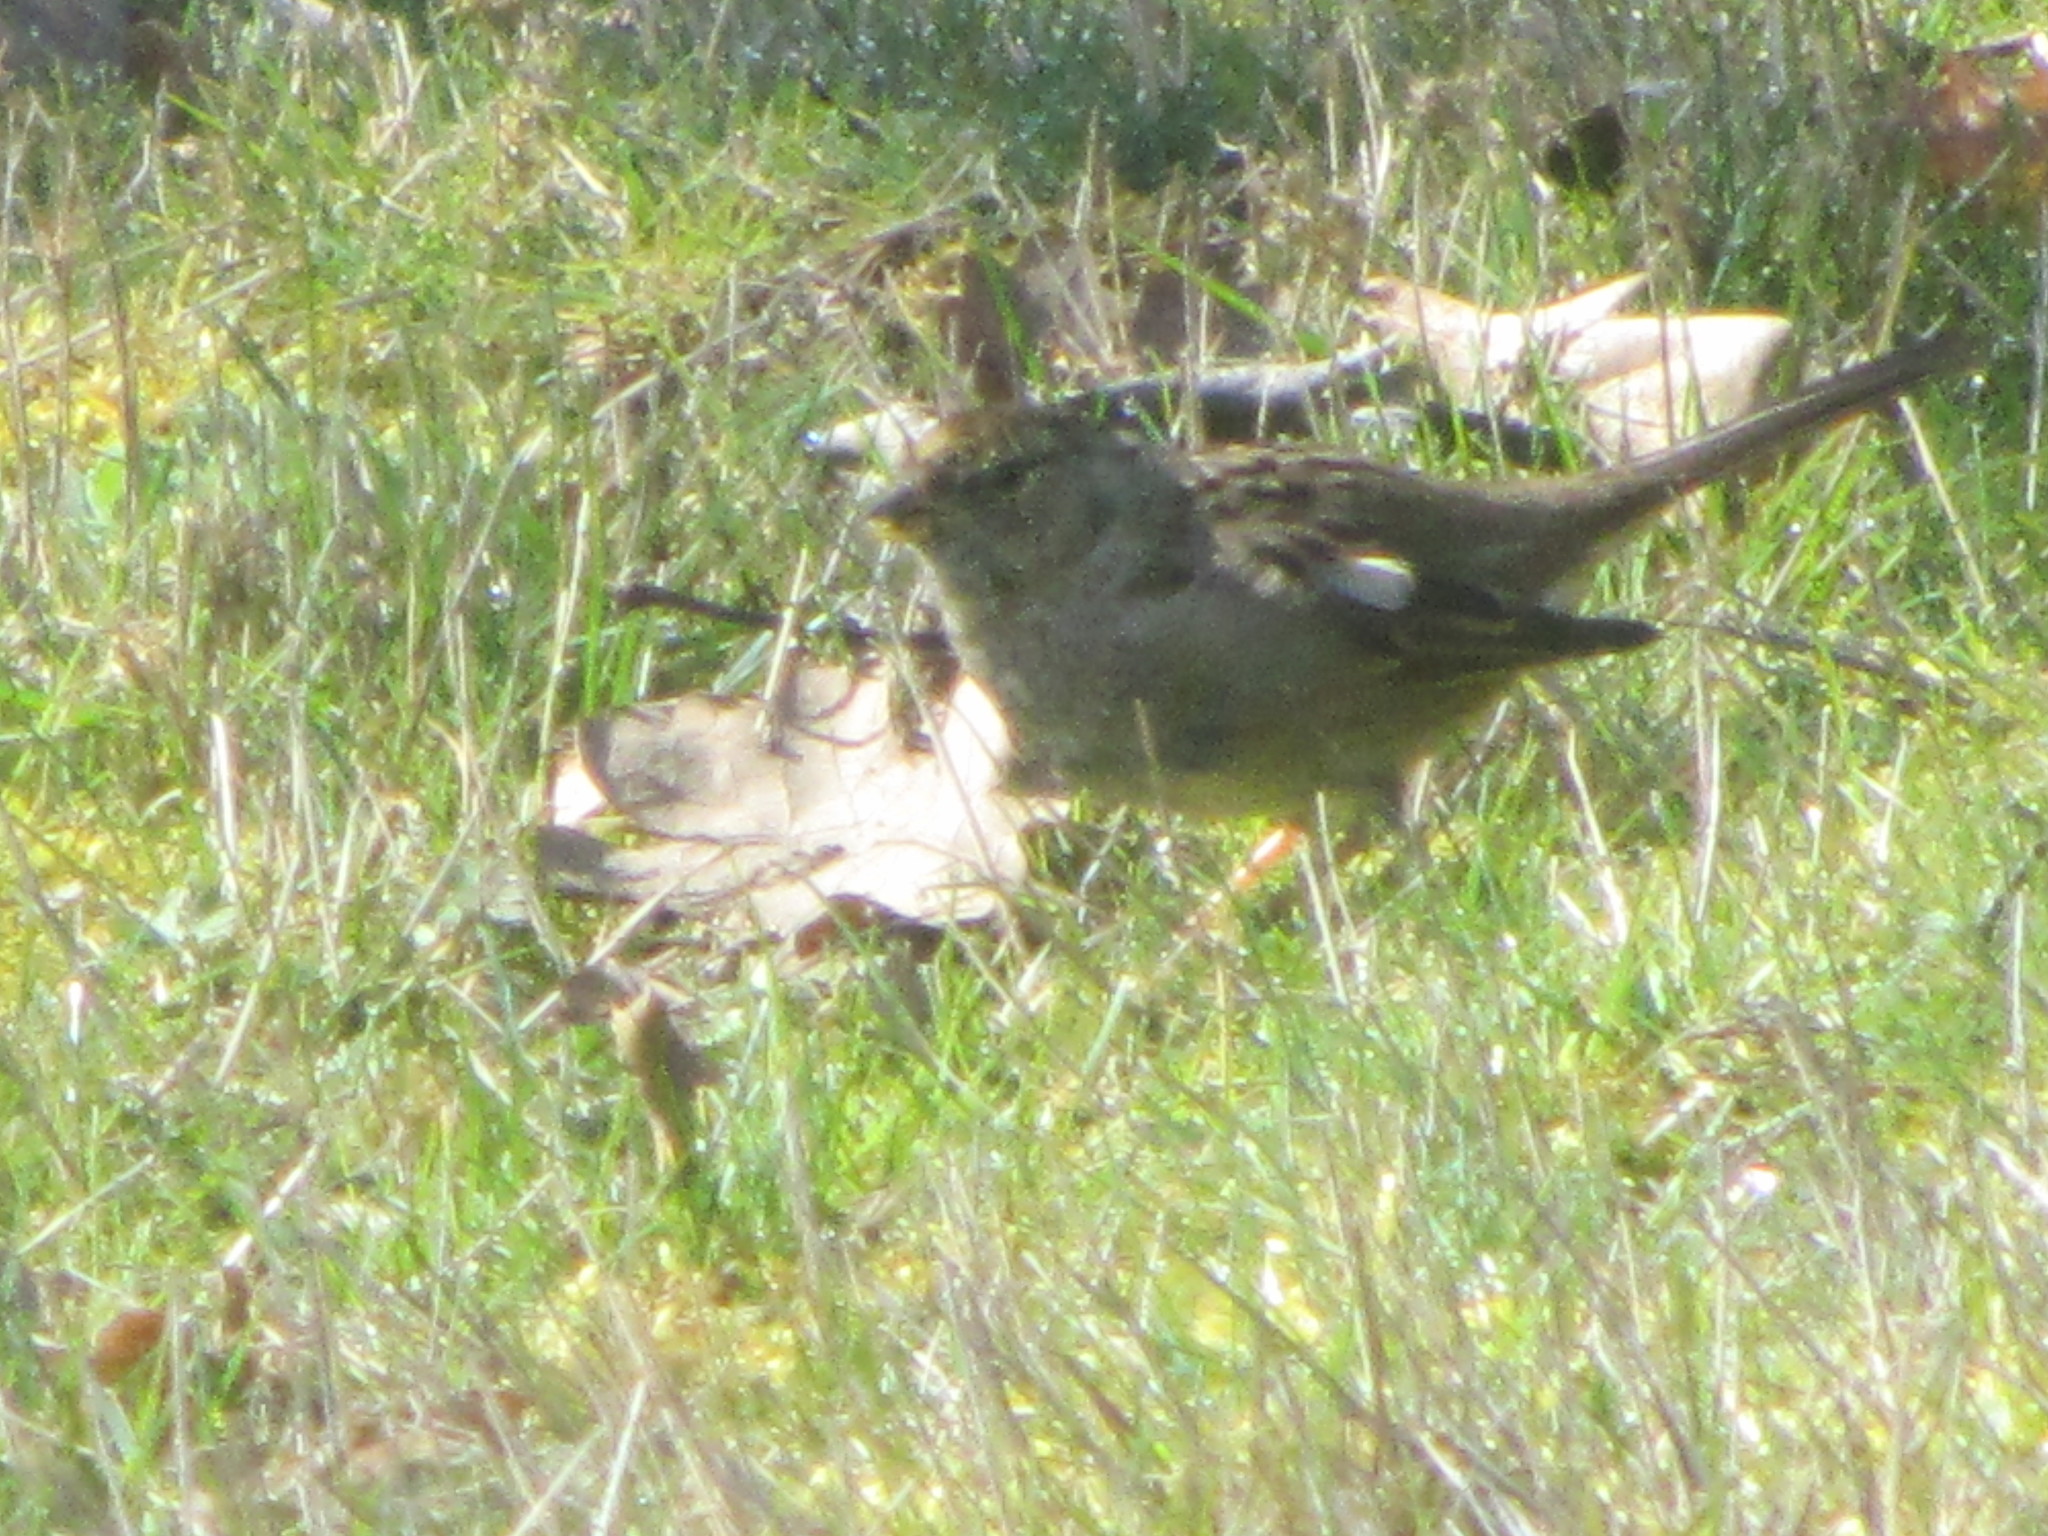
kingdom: Animalia
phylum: Chordata
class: Aves
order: Passeriformes
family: Passerellidae
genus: Zonotrichia
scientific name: Zonotrichia atricapilla
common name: Golden-crowned sparrow
